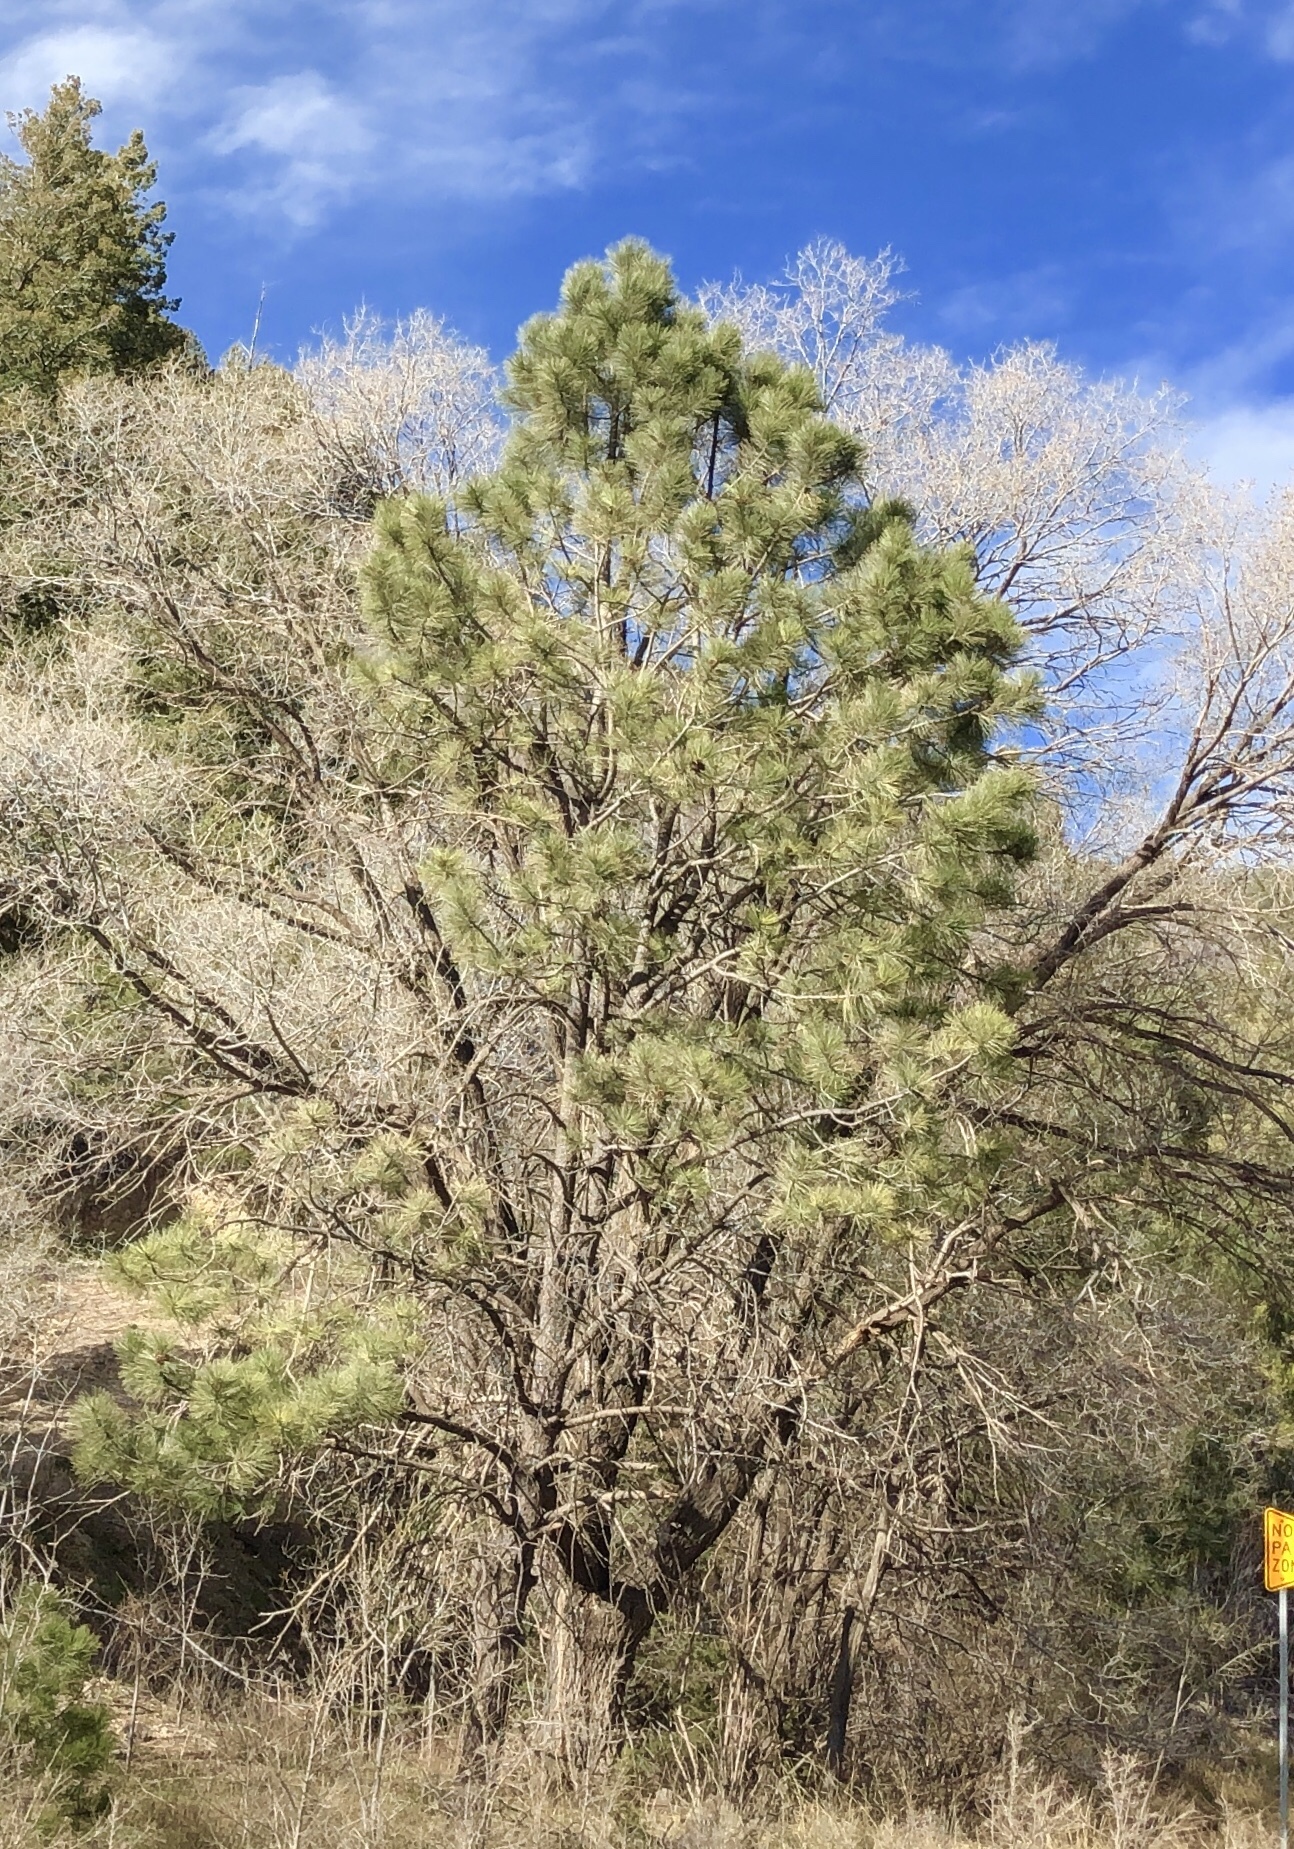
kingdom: Plantae
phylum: Tracheophyta
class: Pinopsida
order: Pinales
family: Pinaceae
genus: Pinus
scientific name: Pinus ponderosa
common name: Western yellow-pine
